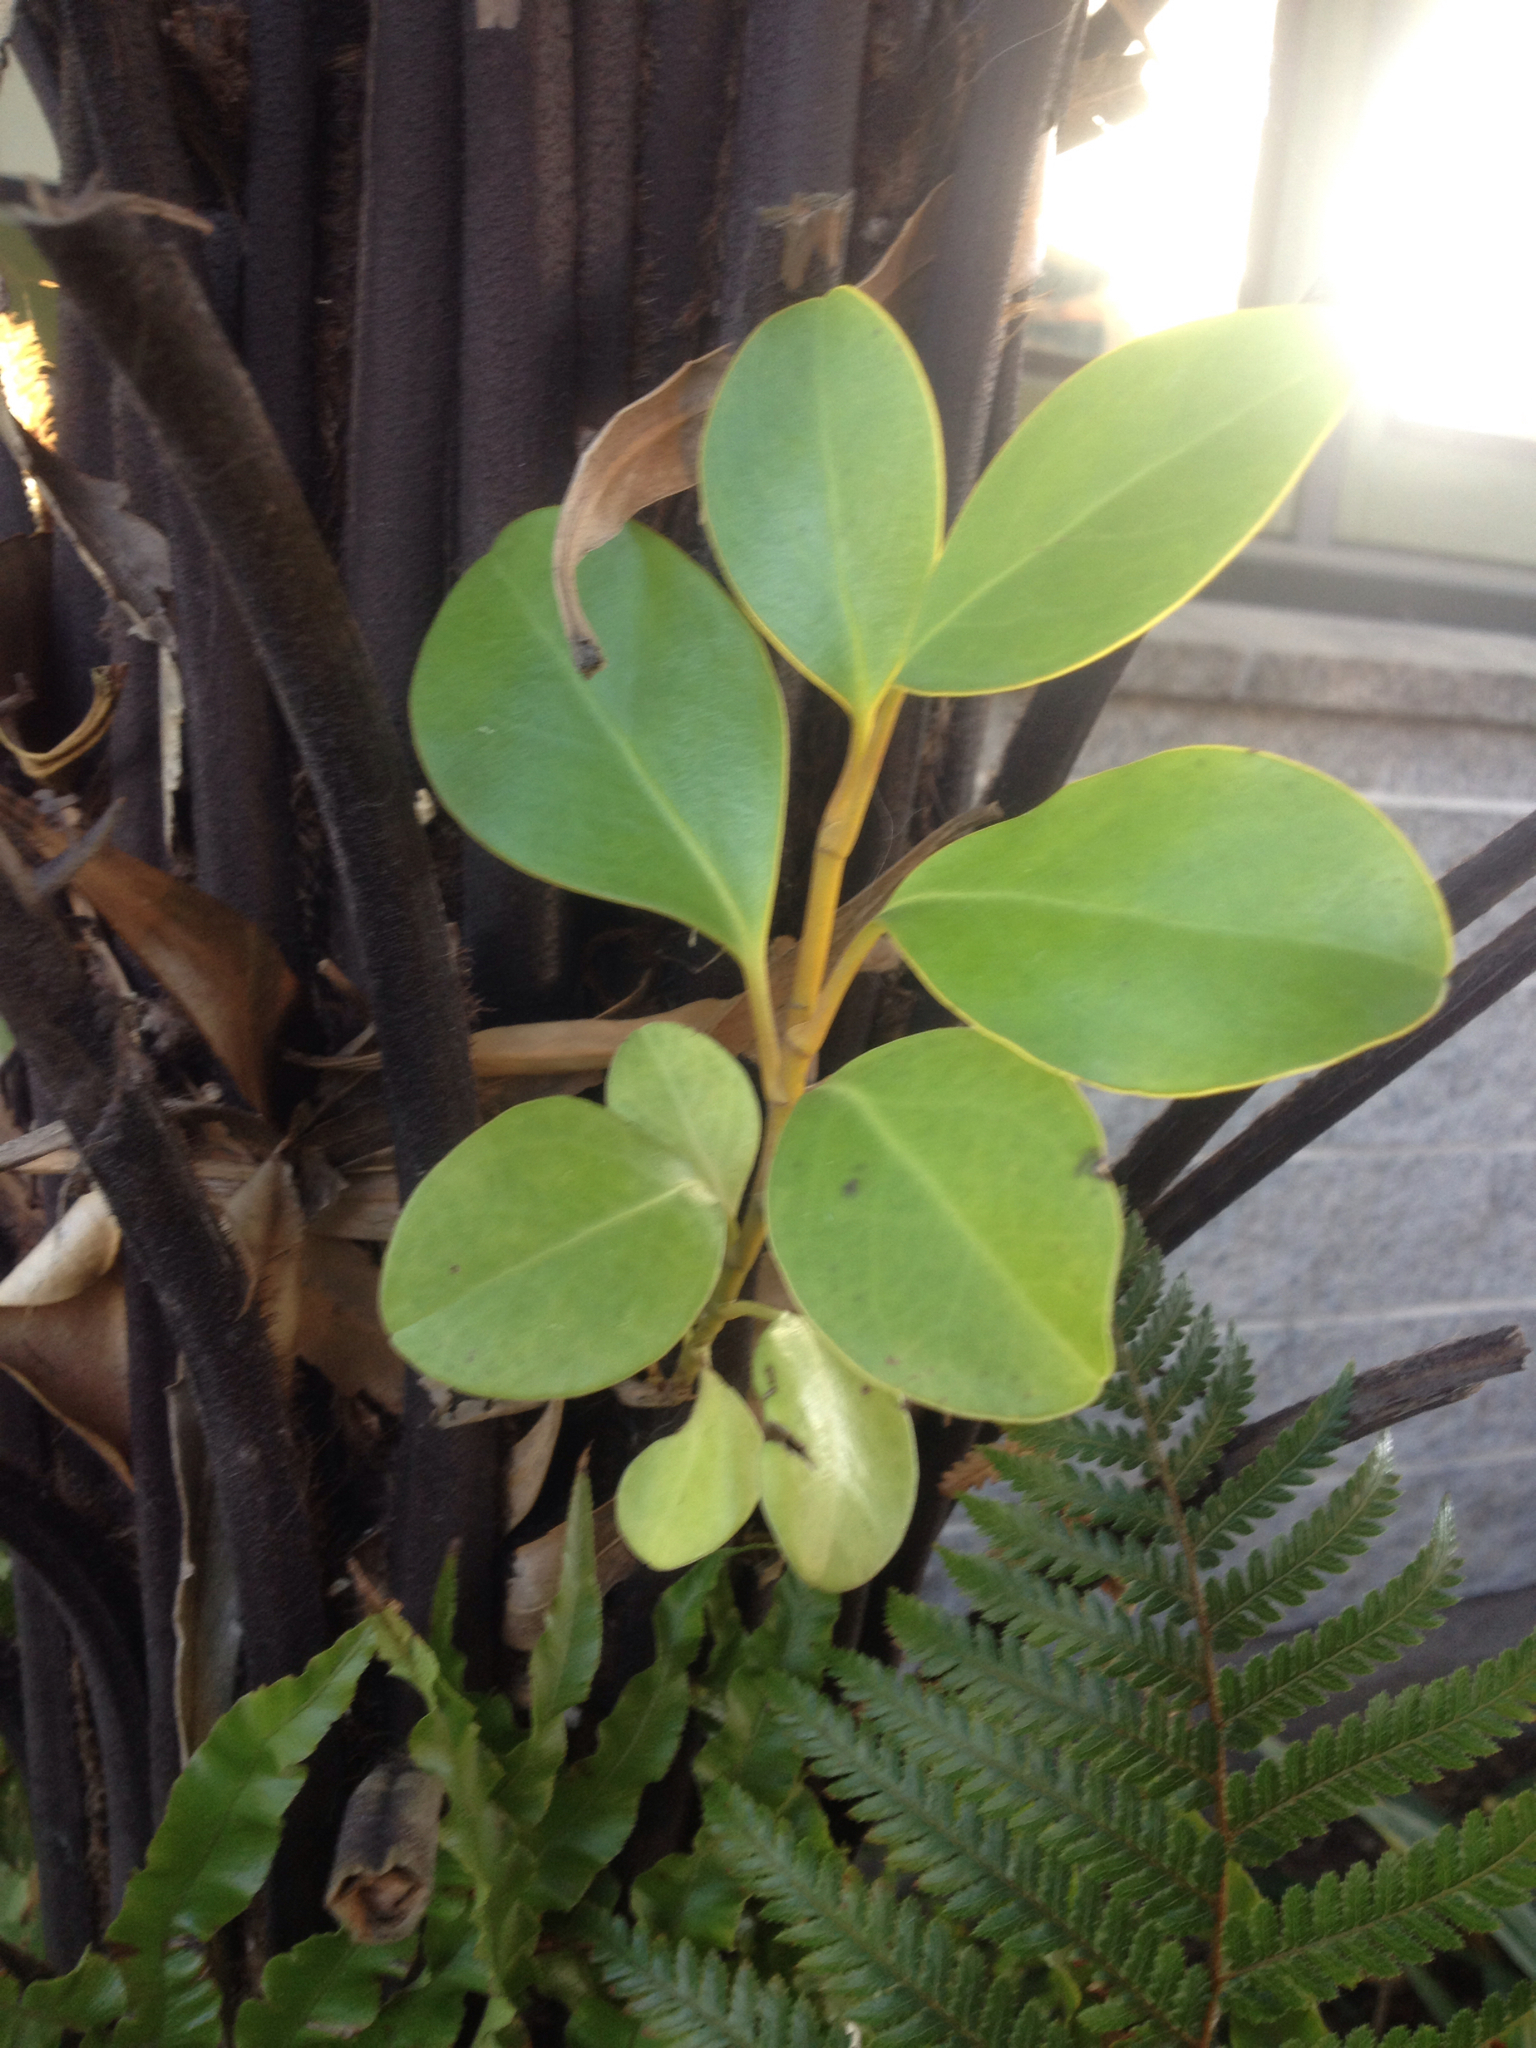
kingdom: Plantae
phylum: Tracheophyta
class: Magnoliopsida
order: Apiales
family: Griseliniaceae
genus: Griselinia
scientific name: Griselinia littoralis
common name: New zealand broadleaf
